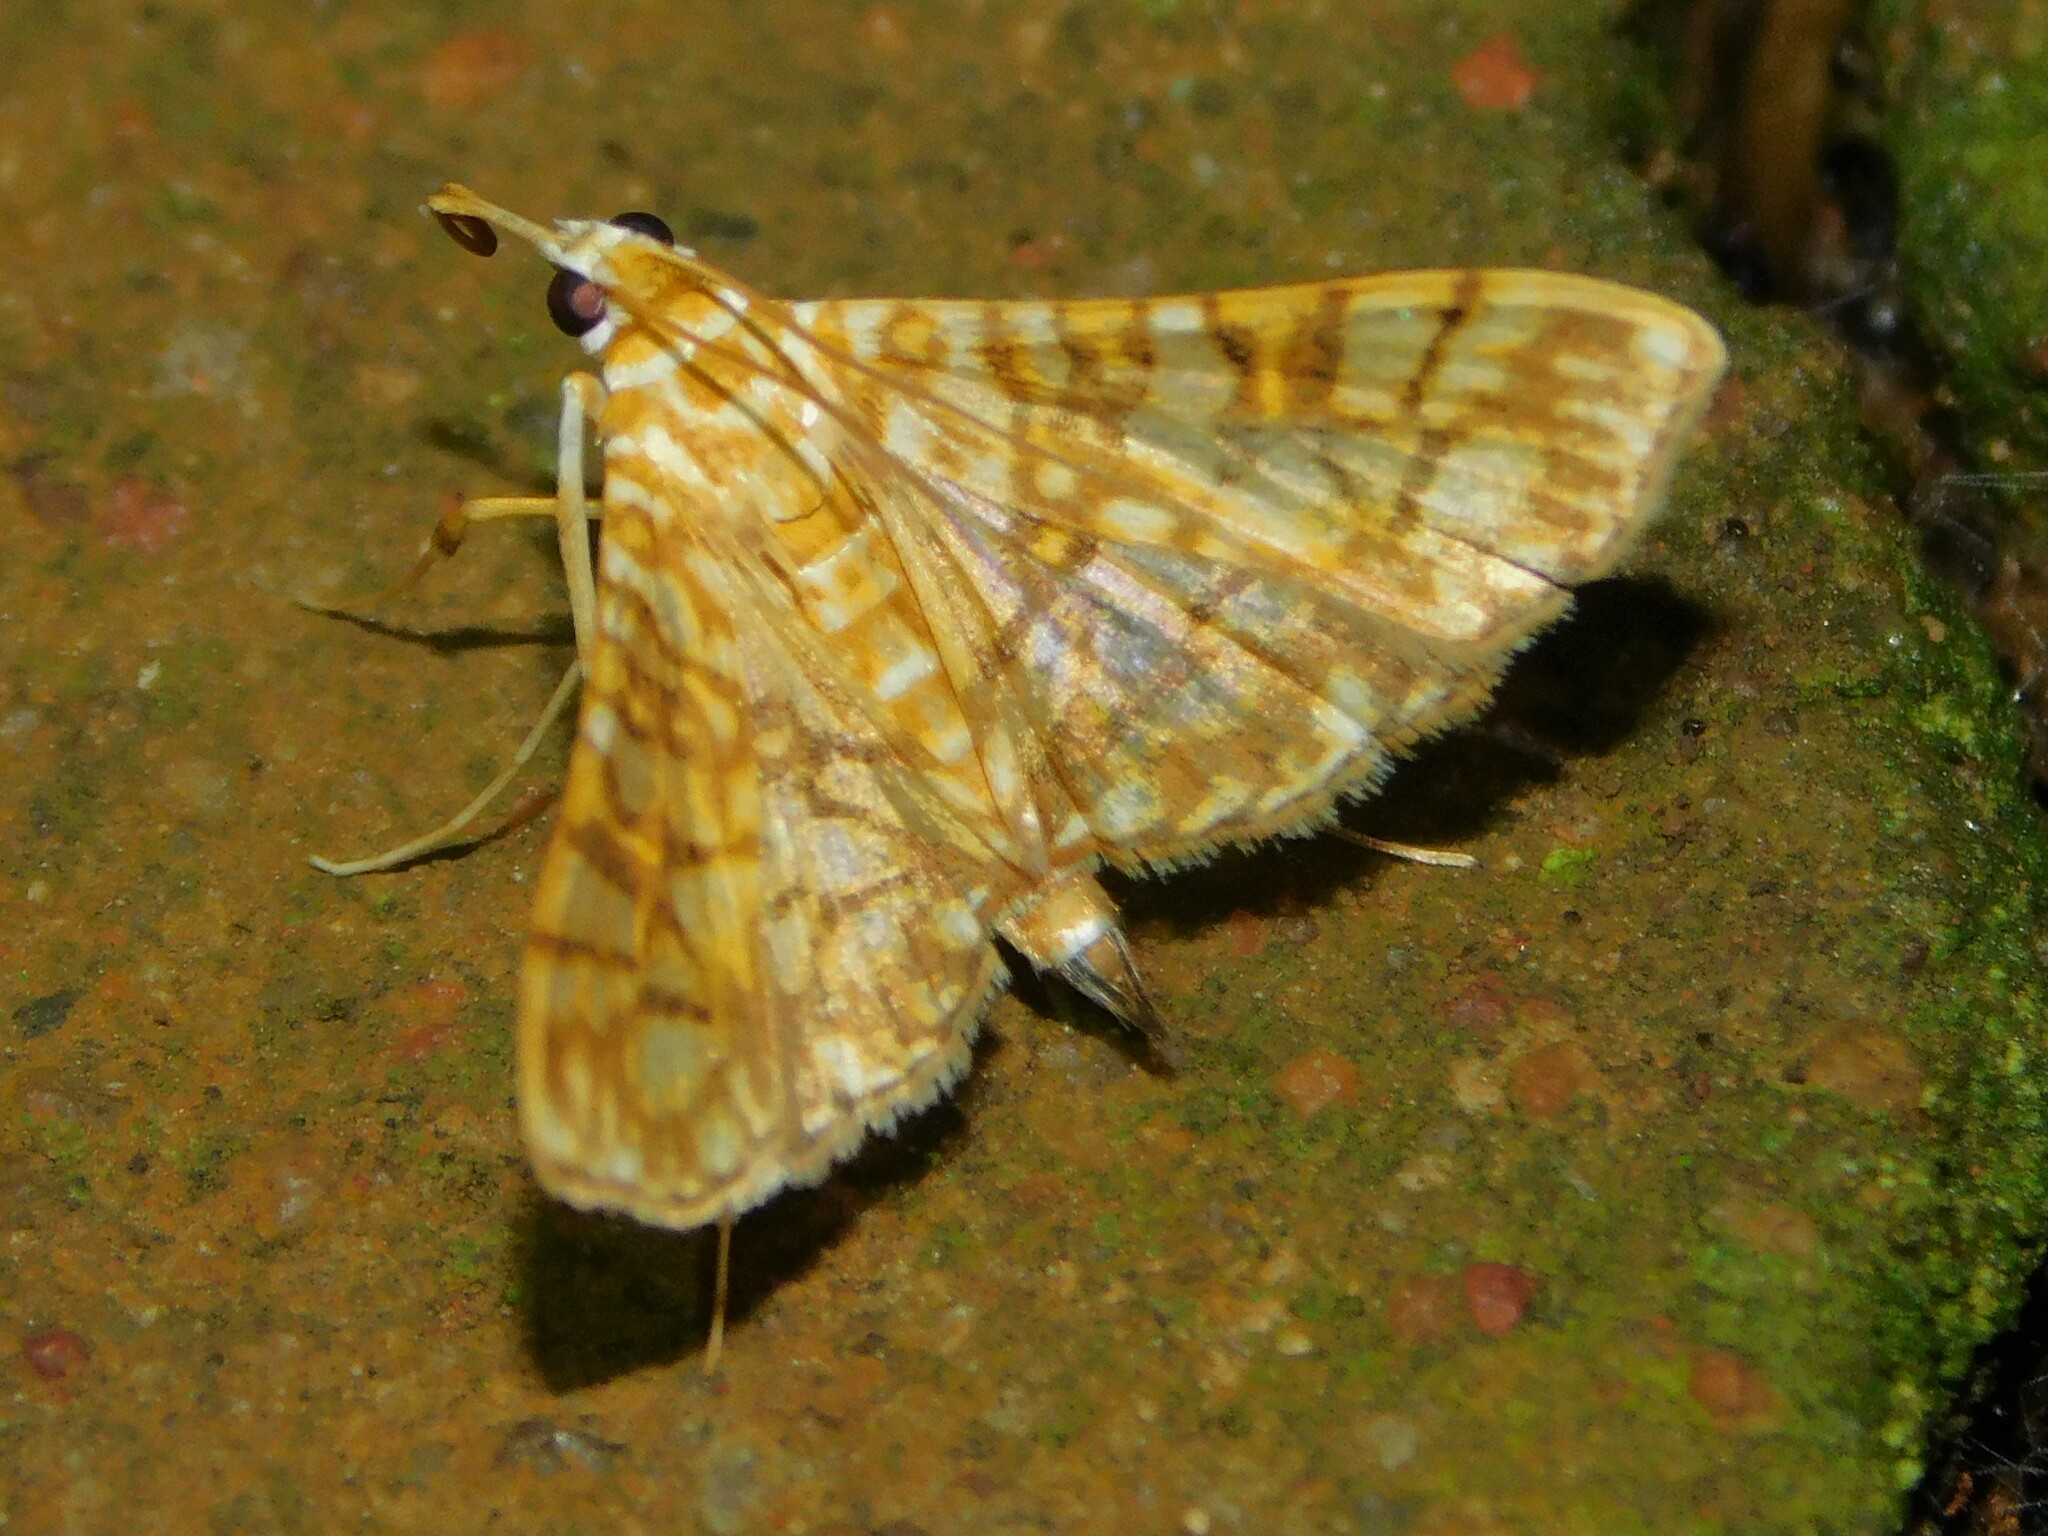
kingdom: Animalia
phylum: Arthropoda
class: Insecta
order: Lepidoptera
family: Crambidae
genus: Synclera
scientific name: Synclera traducalis
